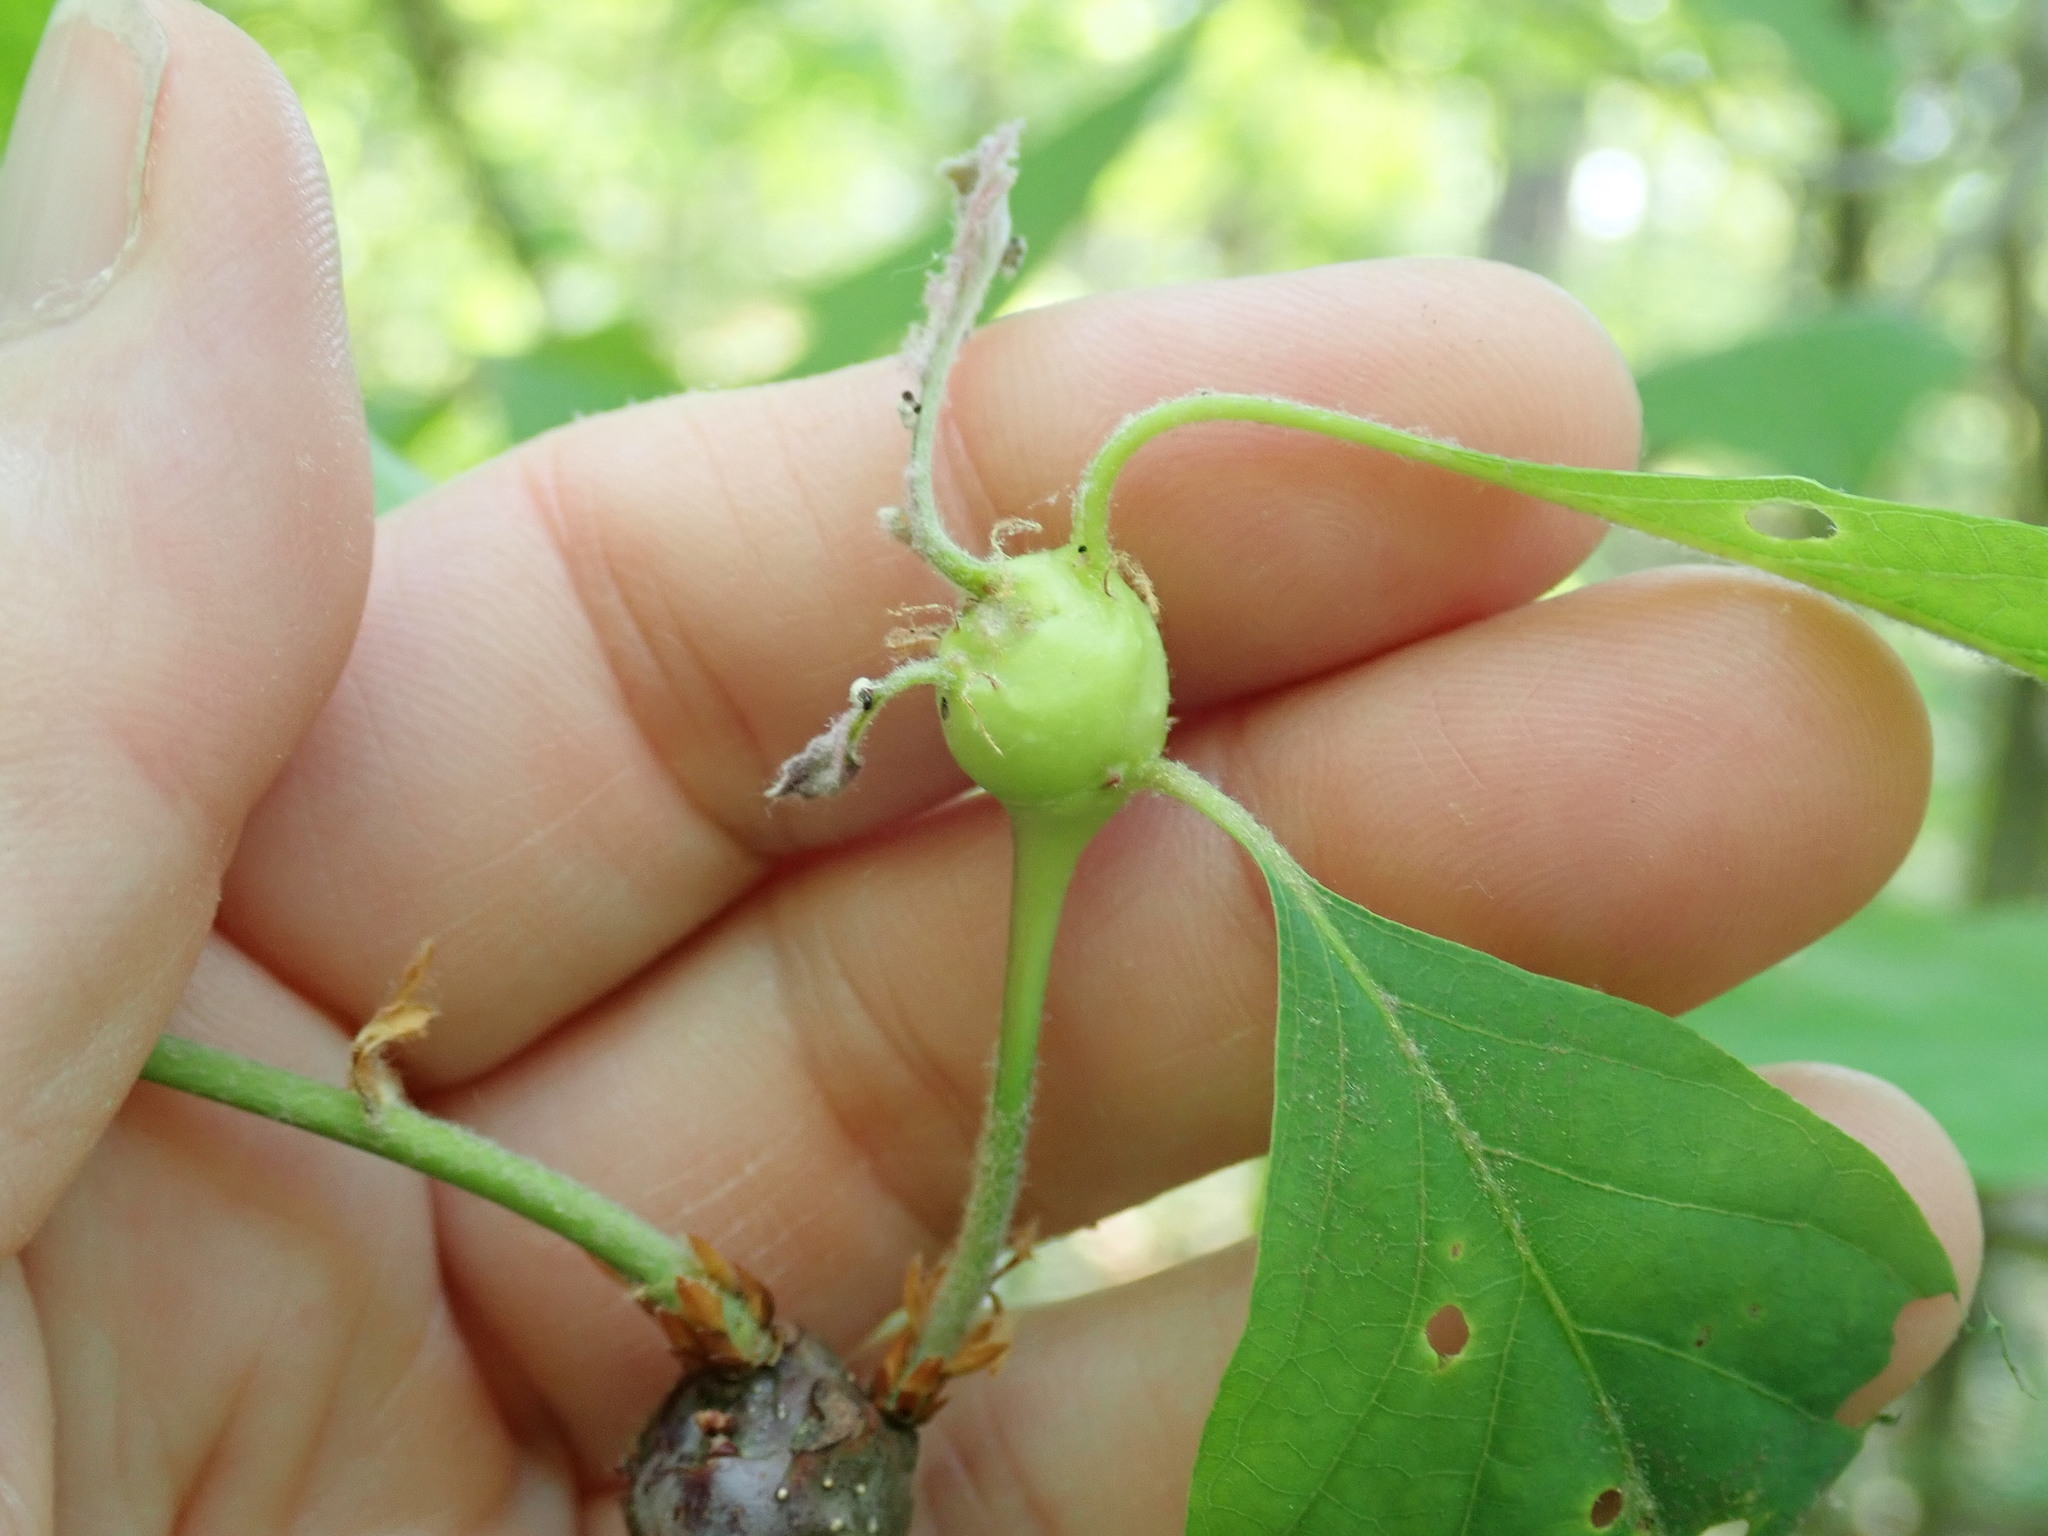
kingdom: Animalia
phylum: Arthropoda
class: Insecta
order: Hymenoptera
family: Cynipidae
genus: Callirhytis
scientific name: Callirhytis clavula
